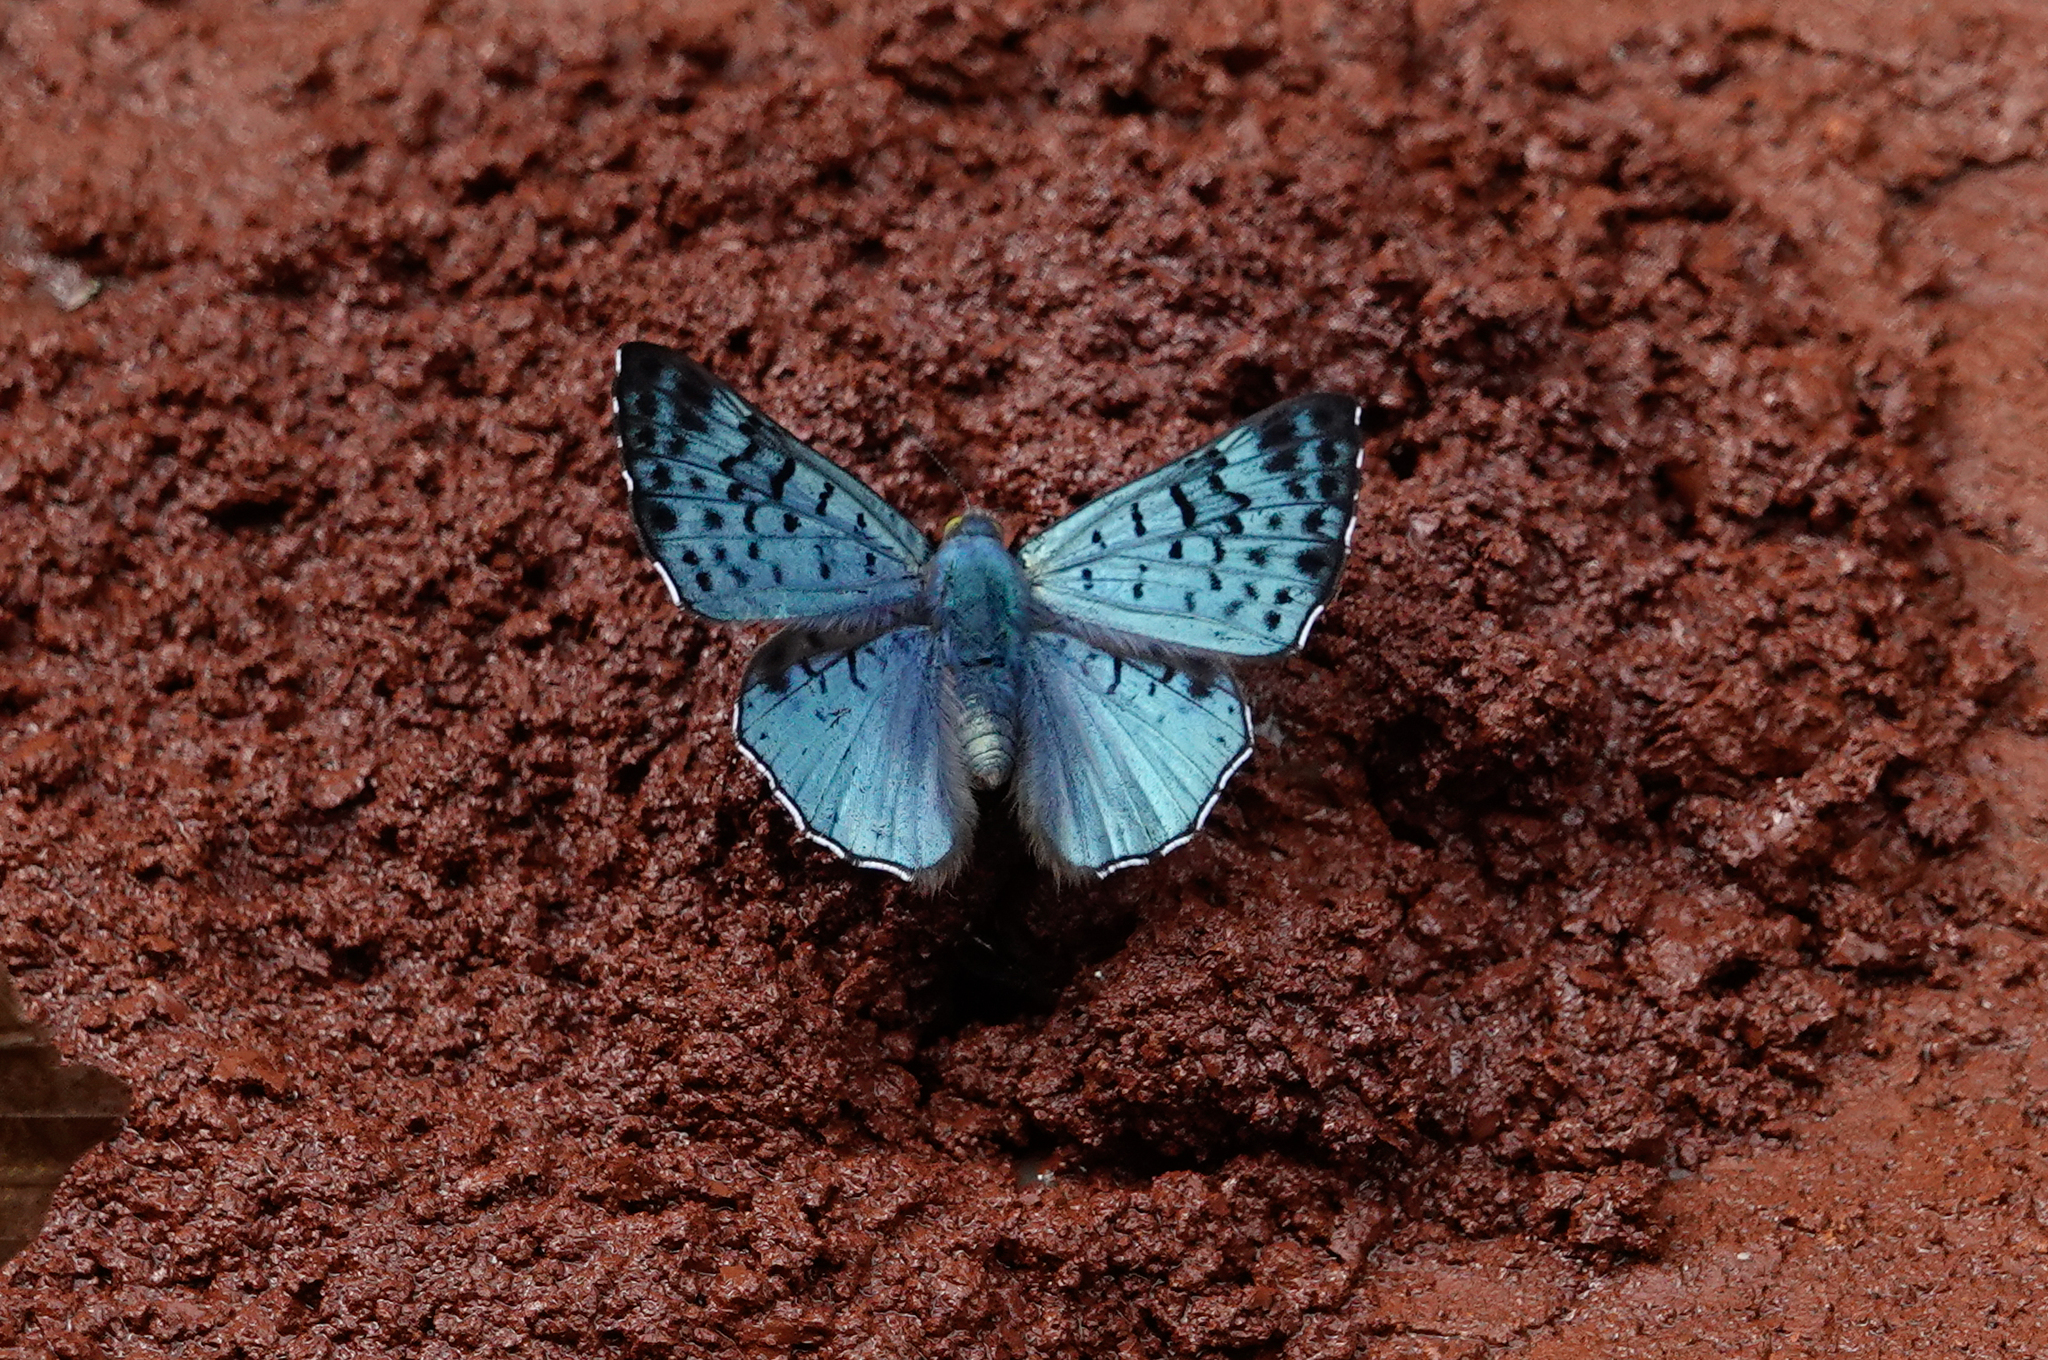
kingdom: Animalia
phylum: Arthropoda
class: Insecta
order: Lepidoptera
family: Riodinidae
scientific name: Riodinidae
